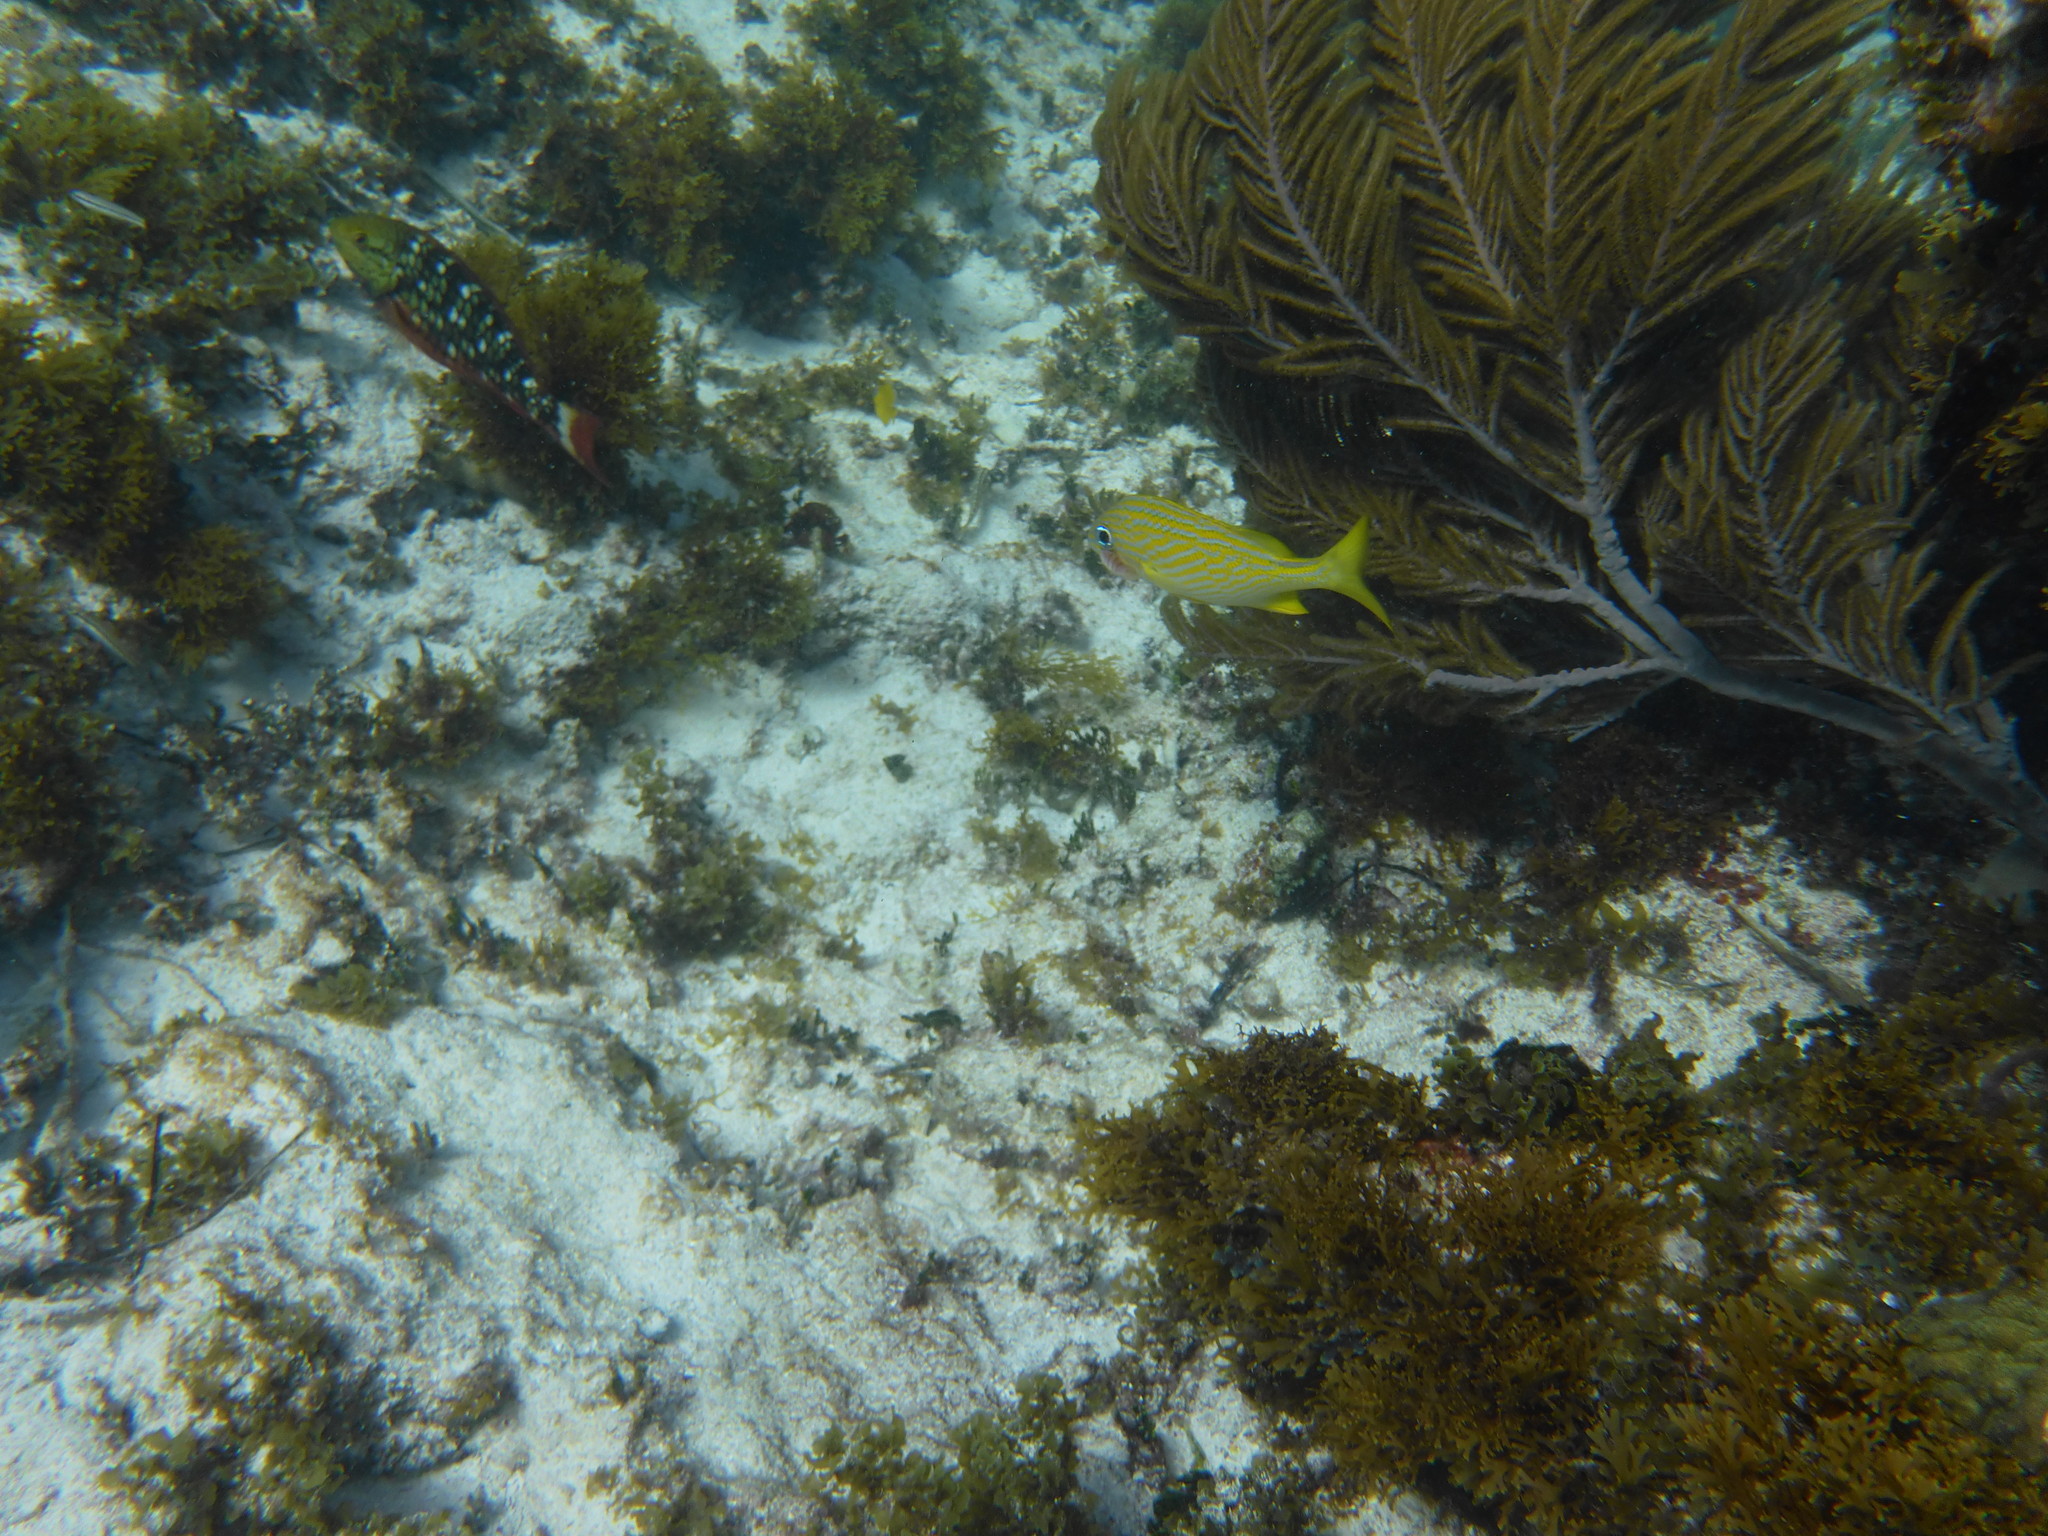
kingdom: Animalia
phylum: Chordata
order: Perciformes
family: Haemulidae
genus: Haemulon
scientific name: Haemulon flavolineatum
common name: French grunt
